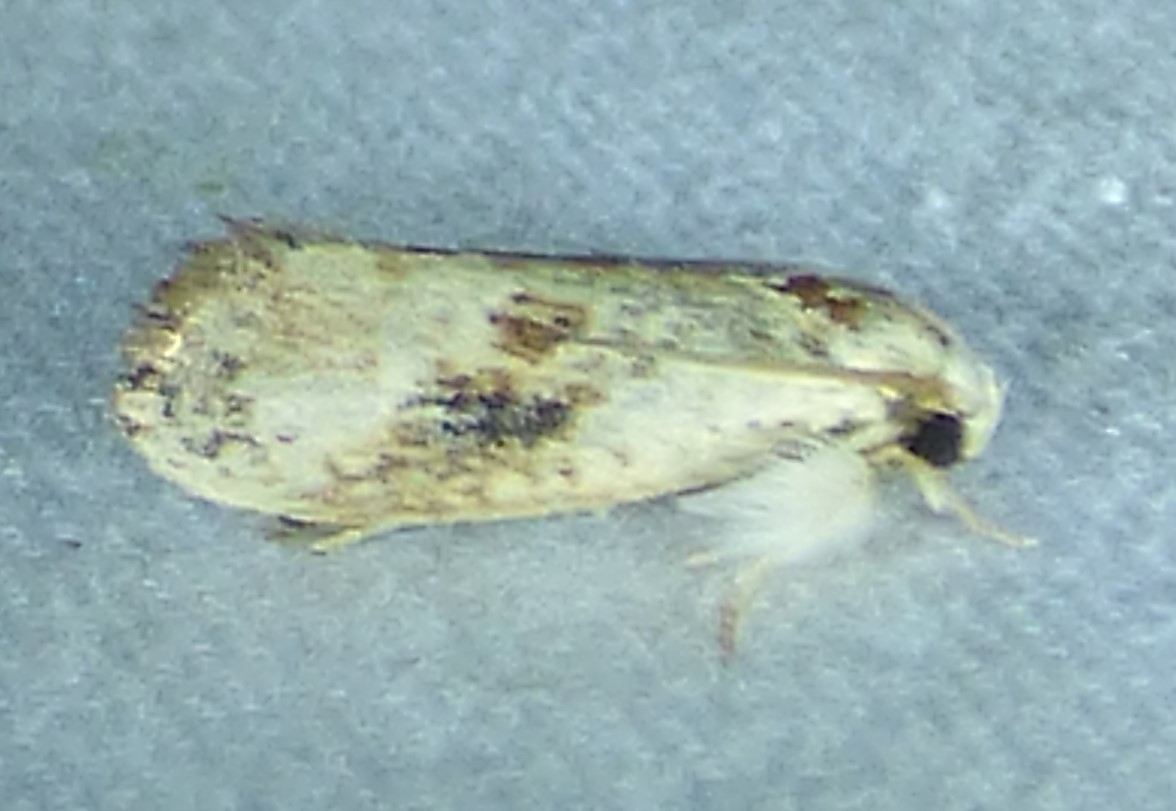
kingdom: Animalia
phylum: Arthropoda
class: Insecta
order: Lepidoptera
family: Tineidae
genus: Acrolophus
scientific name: Acrolophus mycetophagus
